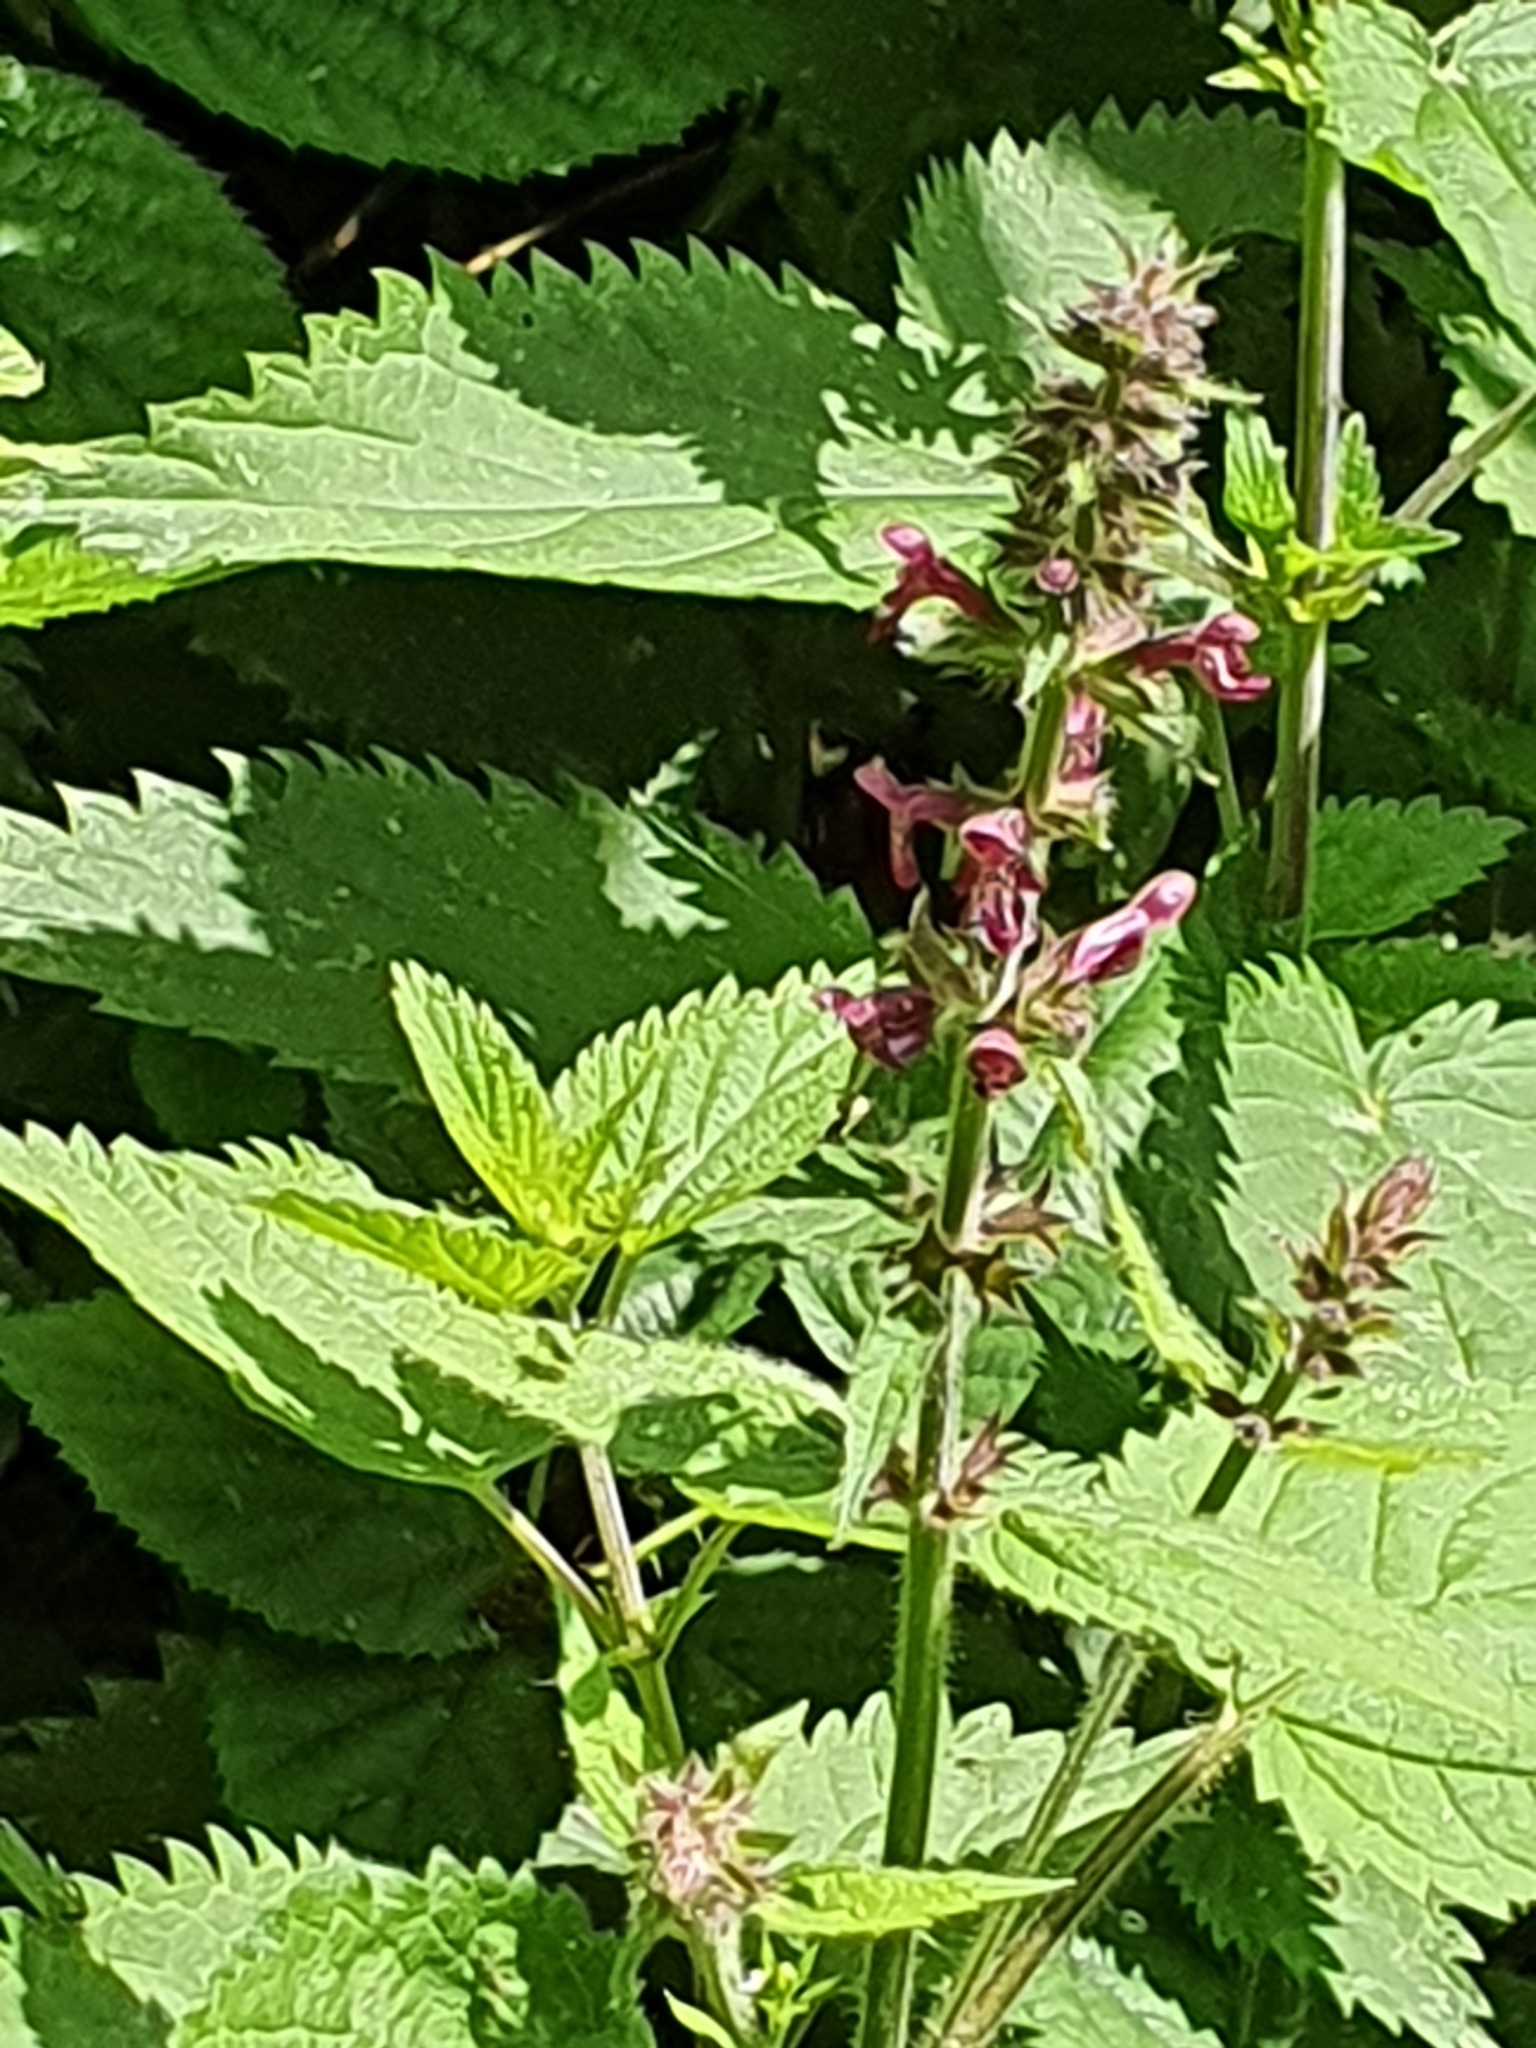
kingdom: Plantae
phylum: Tracheophyta
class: Magnoliopsida
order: Lamiales
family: Lamiaceae
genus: Stachys
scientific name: Stachys sylvatica
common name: Hedge woundwort
